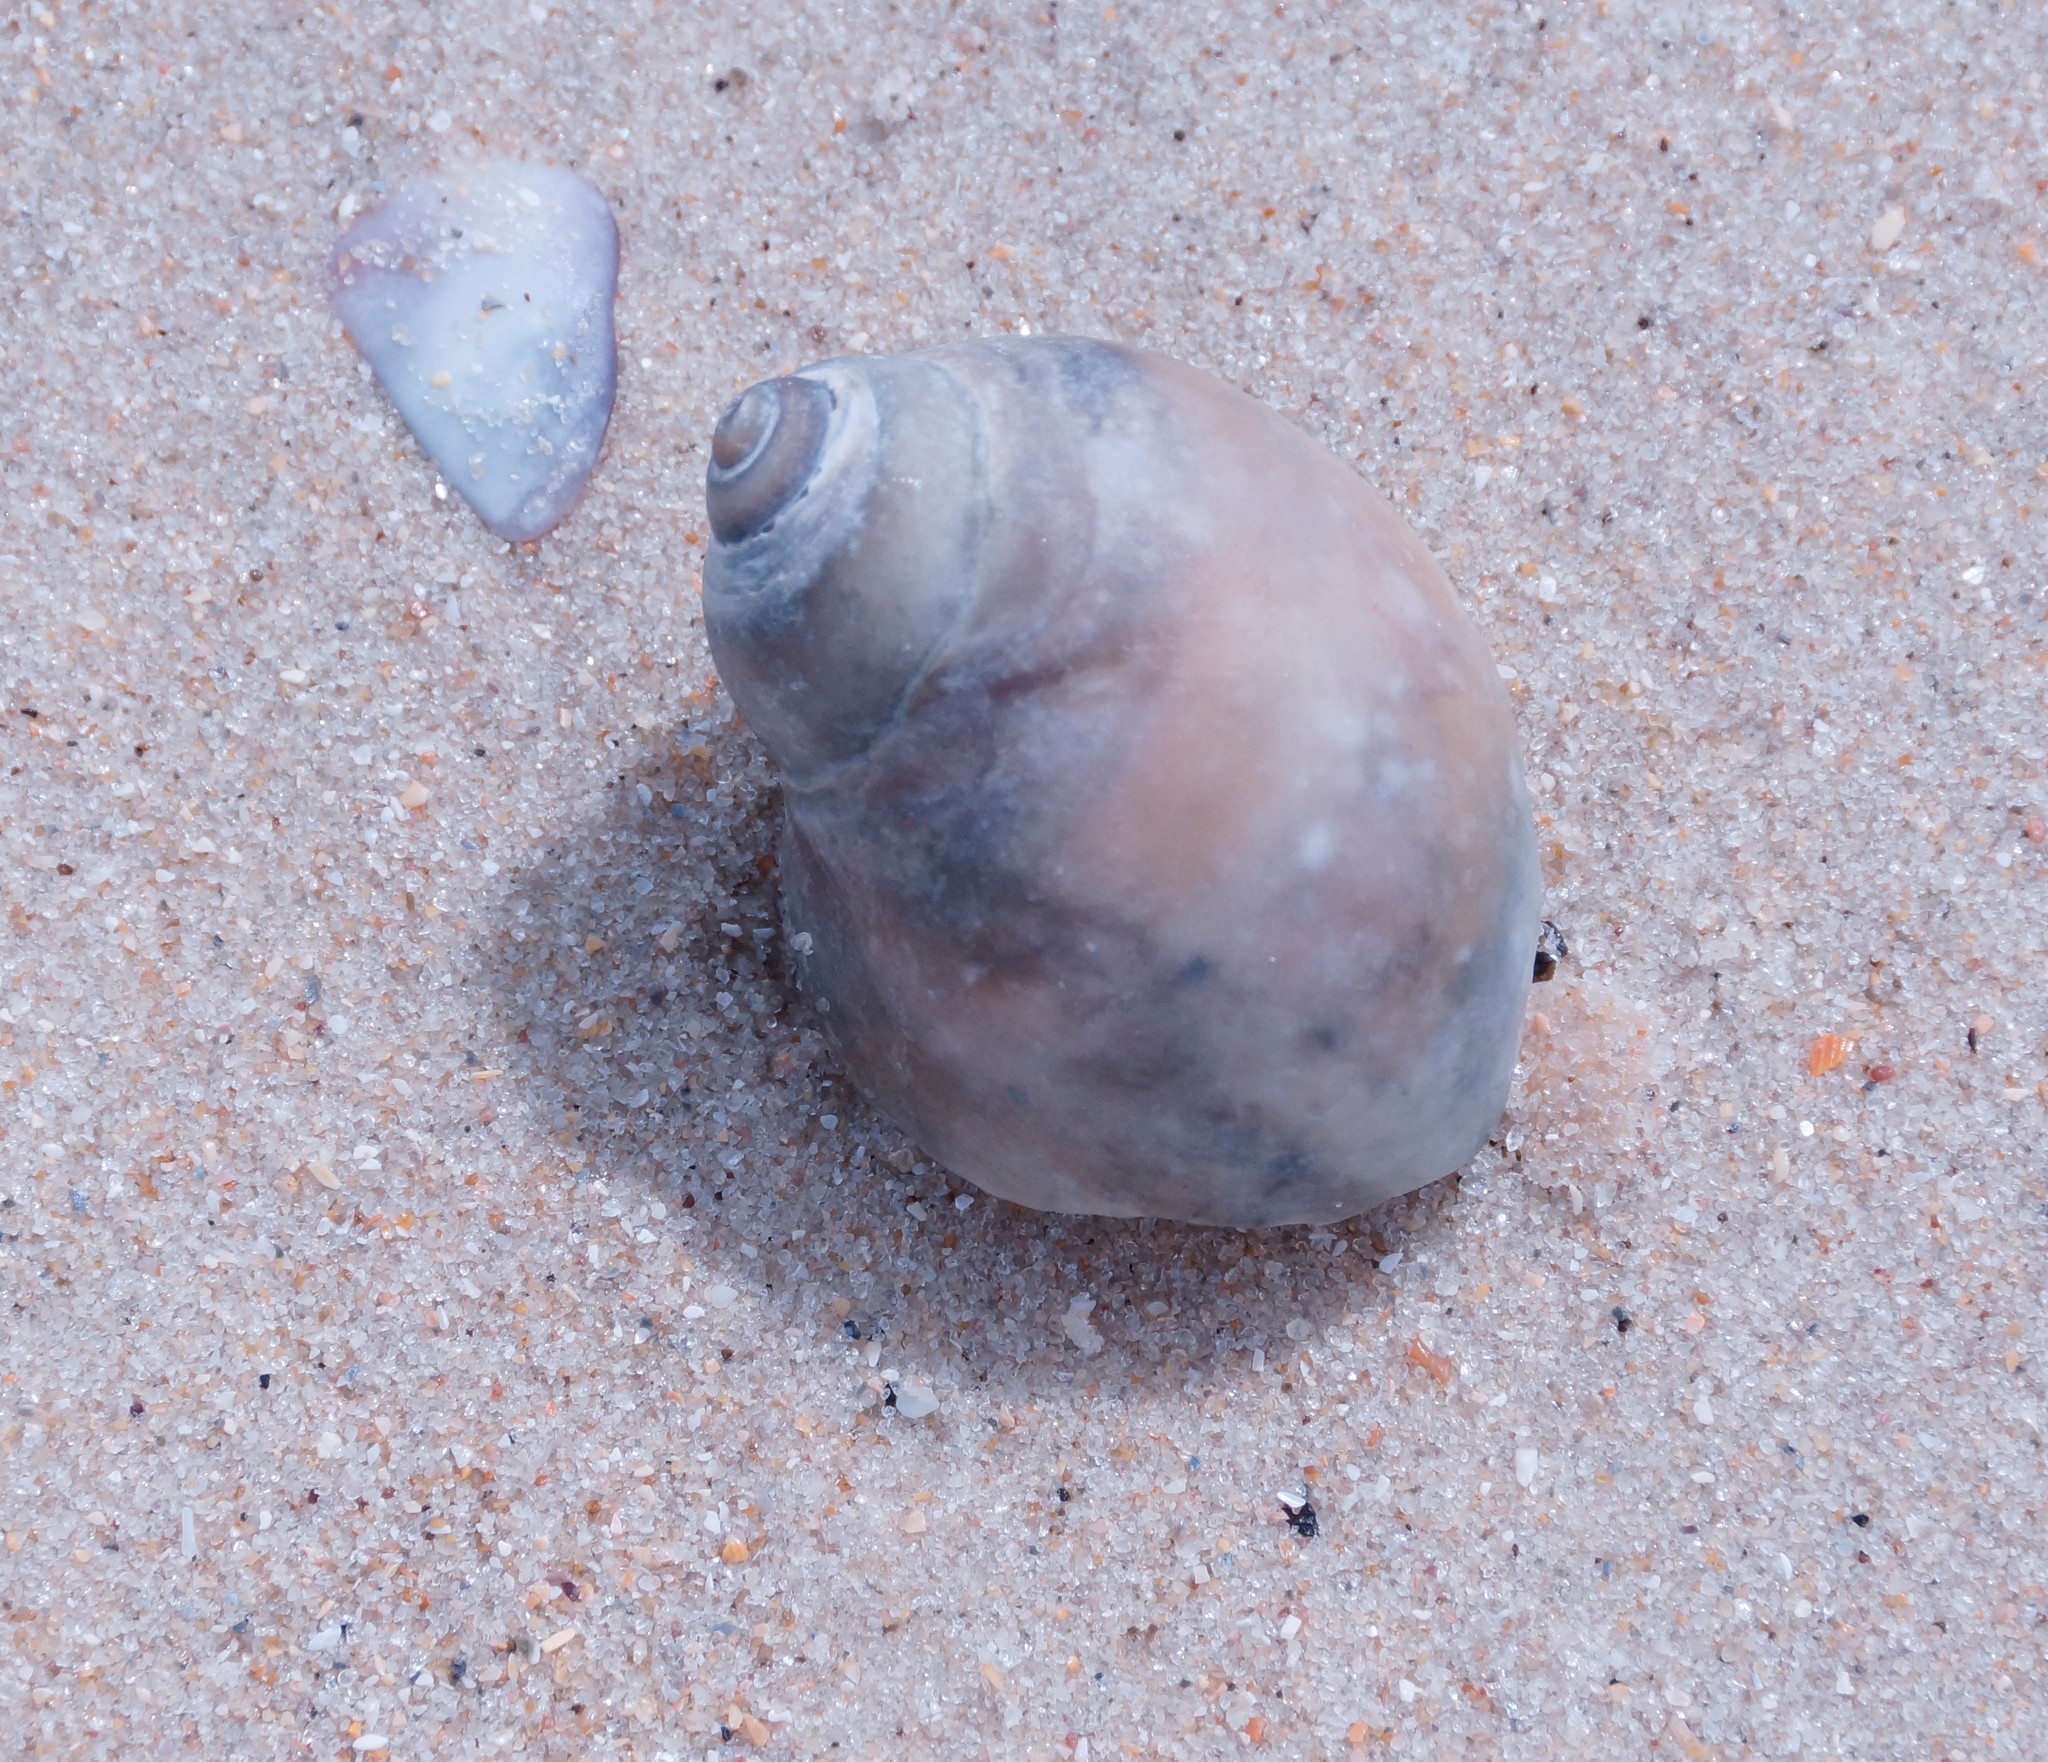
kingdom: Animalia
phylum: Mollusca
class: Gastropoda
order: Littorinimorpha
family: Naticidae
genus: Conuber
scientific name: Conuber conicum
